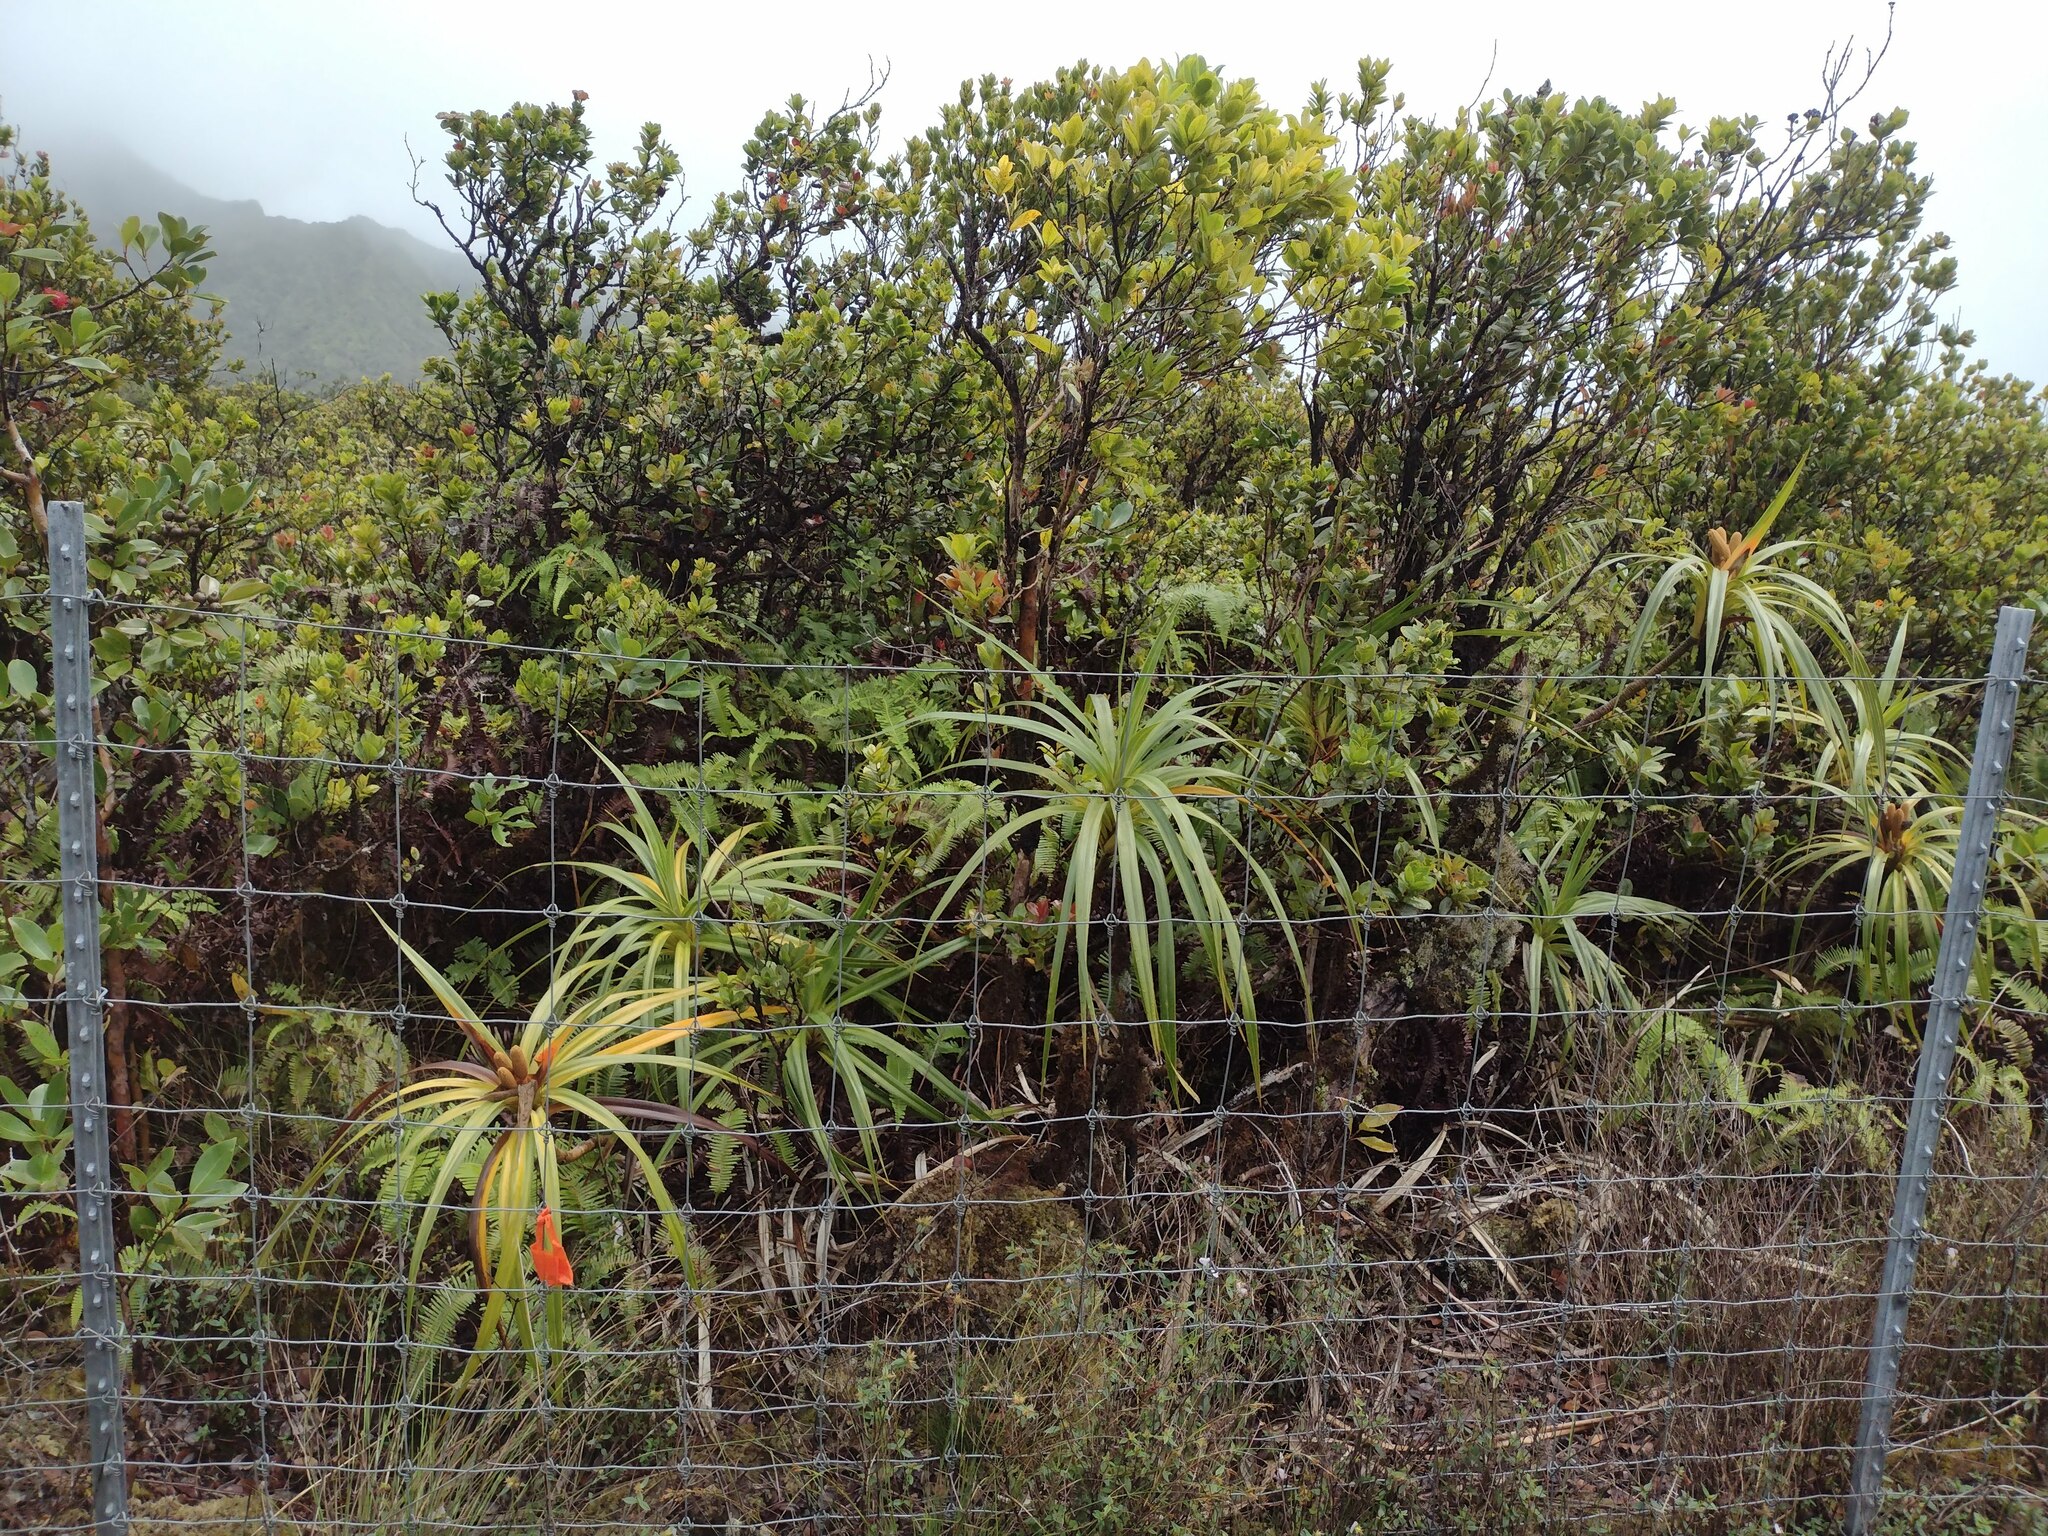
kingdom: Plantae
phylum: Tracheophyta
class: Liliopsida
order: Pandanales
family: Pandanaceae
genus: Freycinetia
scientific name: Freycinetia arborea
